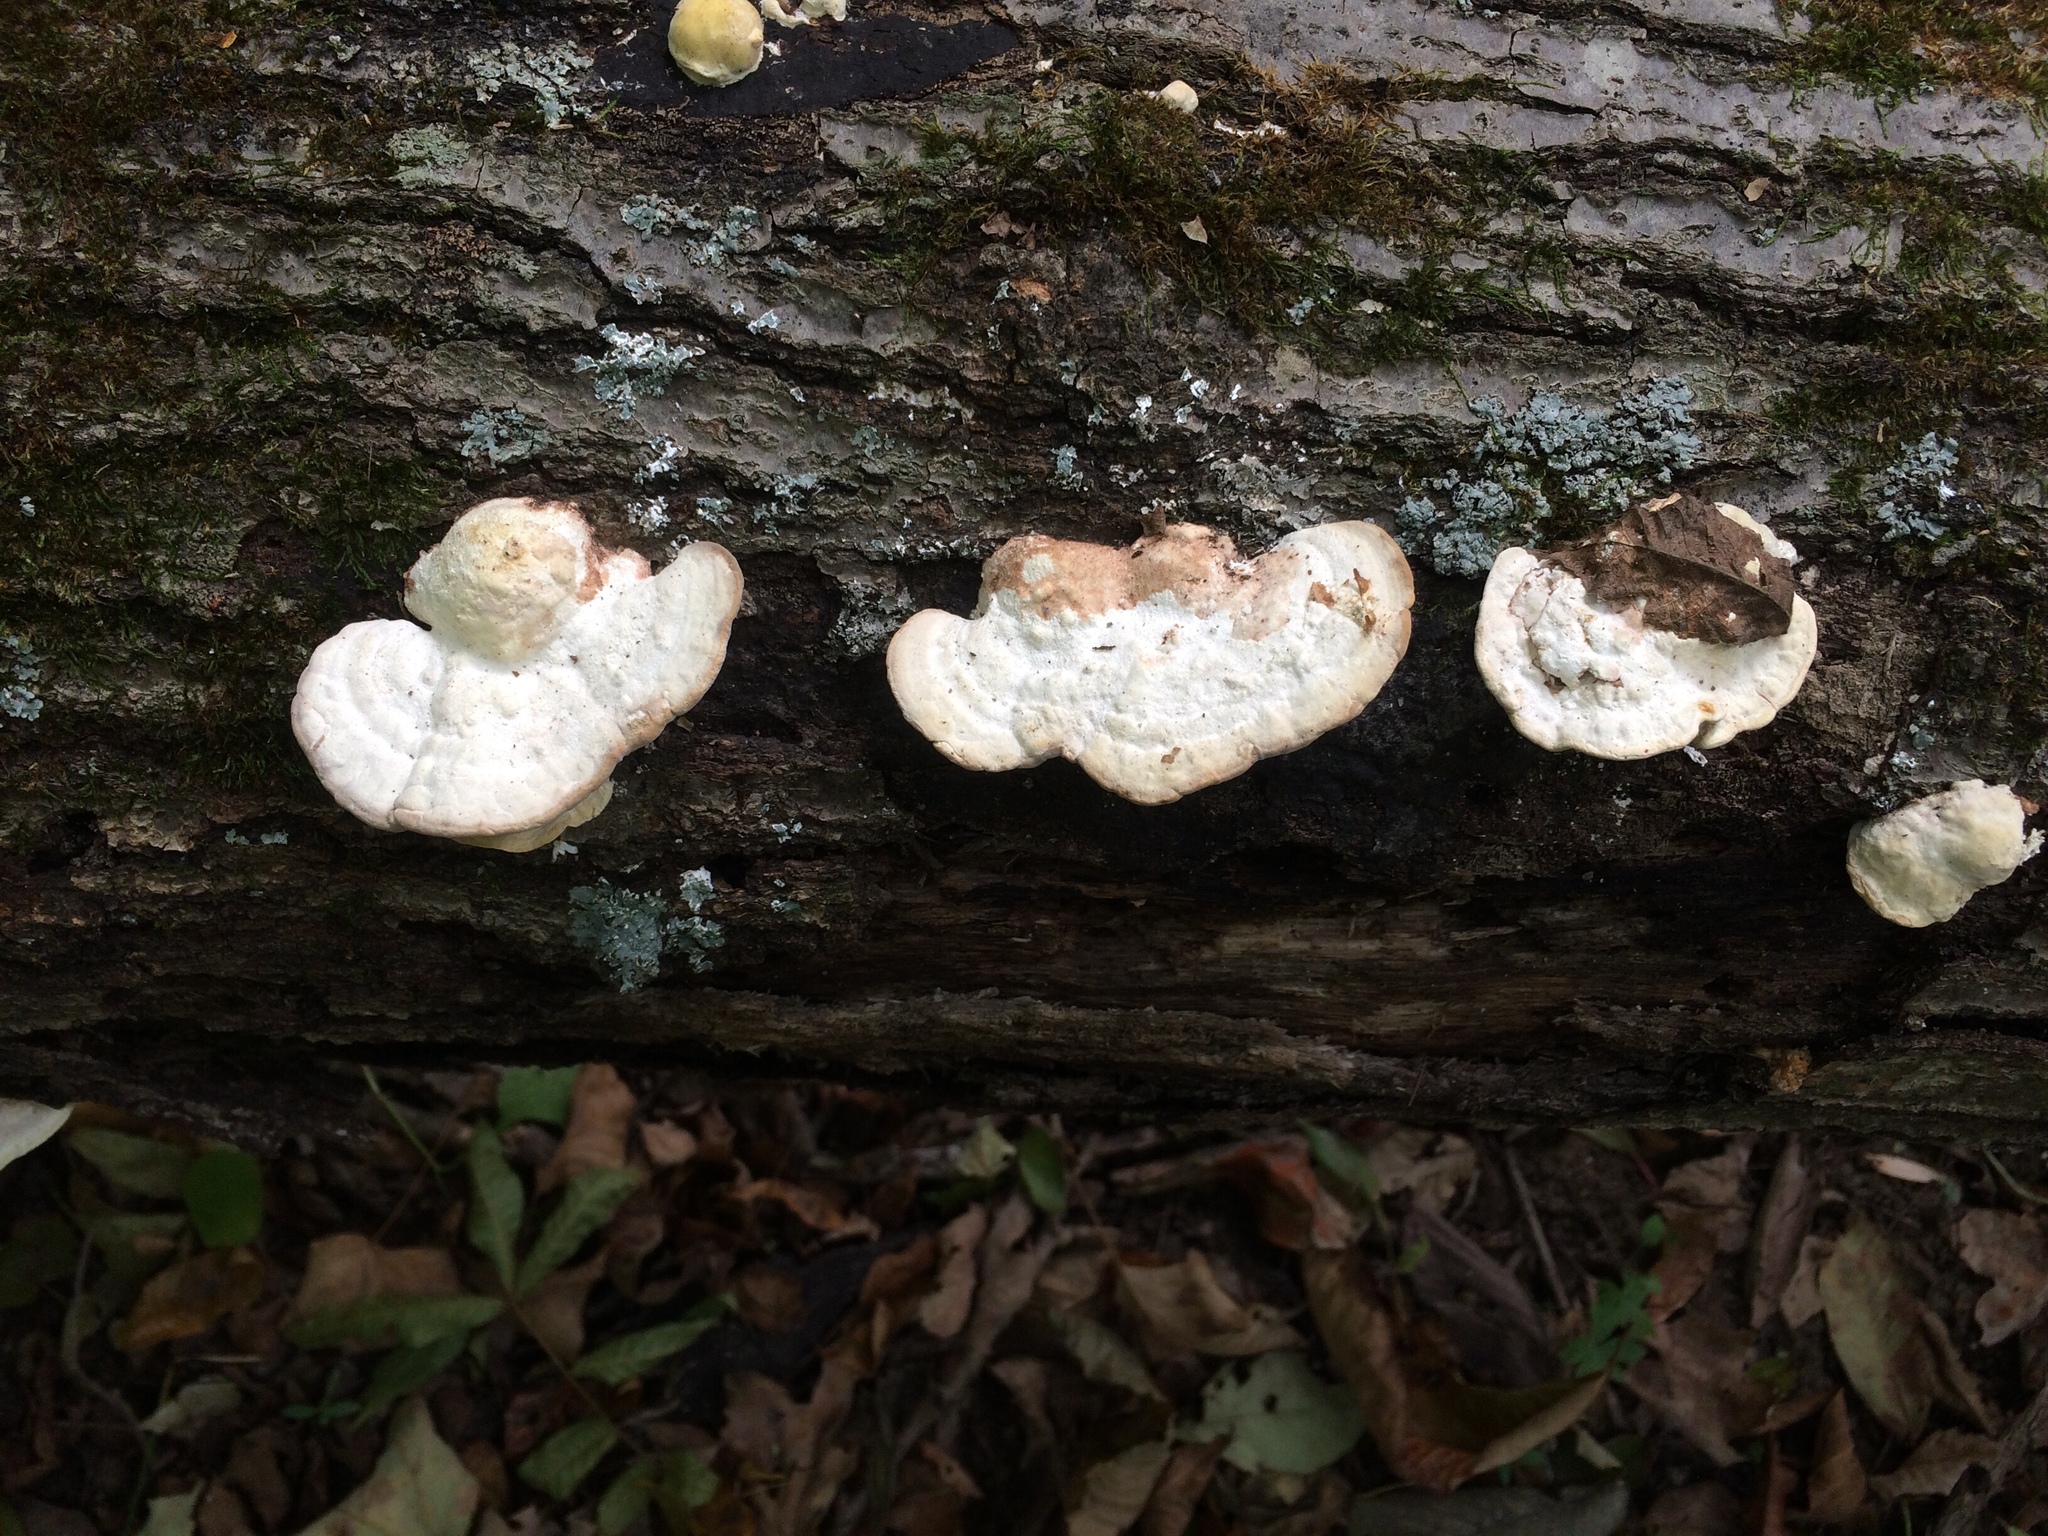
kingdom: Fungi
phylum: Basidiomycota
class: Agaricomycetes
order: Polyporales
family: Polyporaceae
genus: Trametes
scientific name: Trametes
